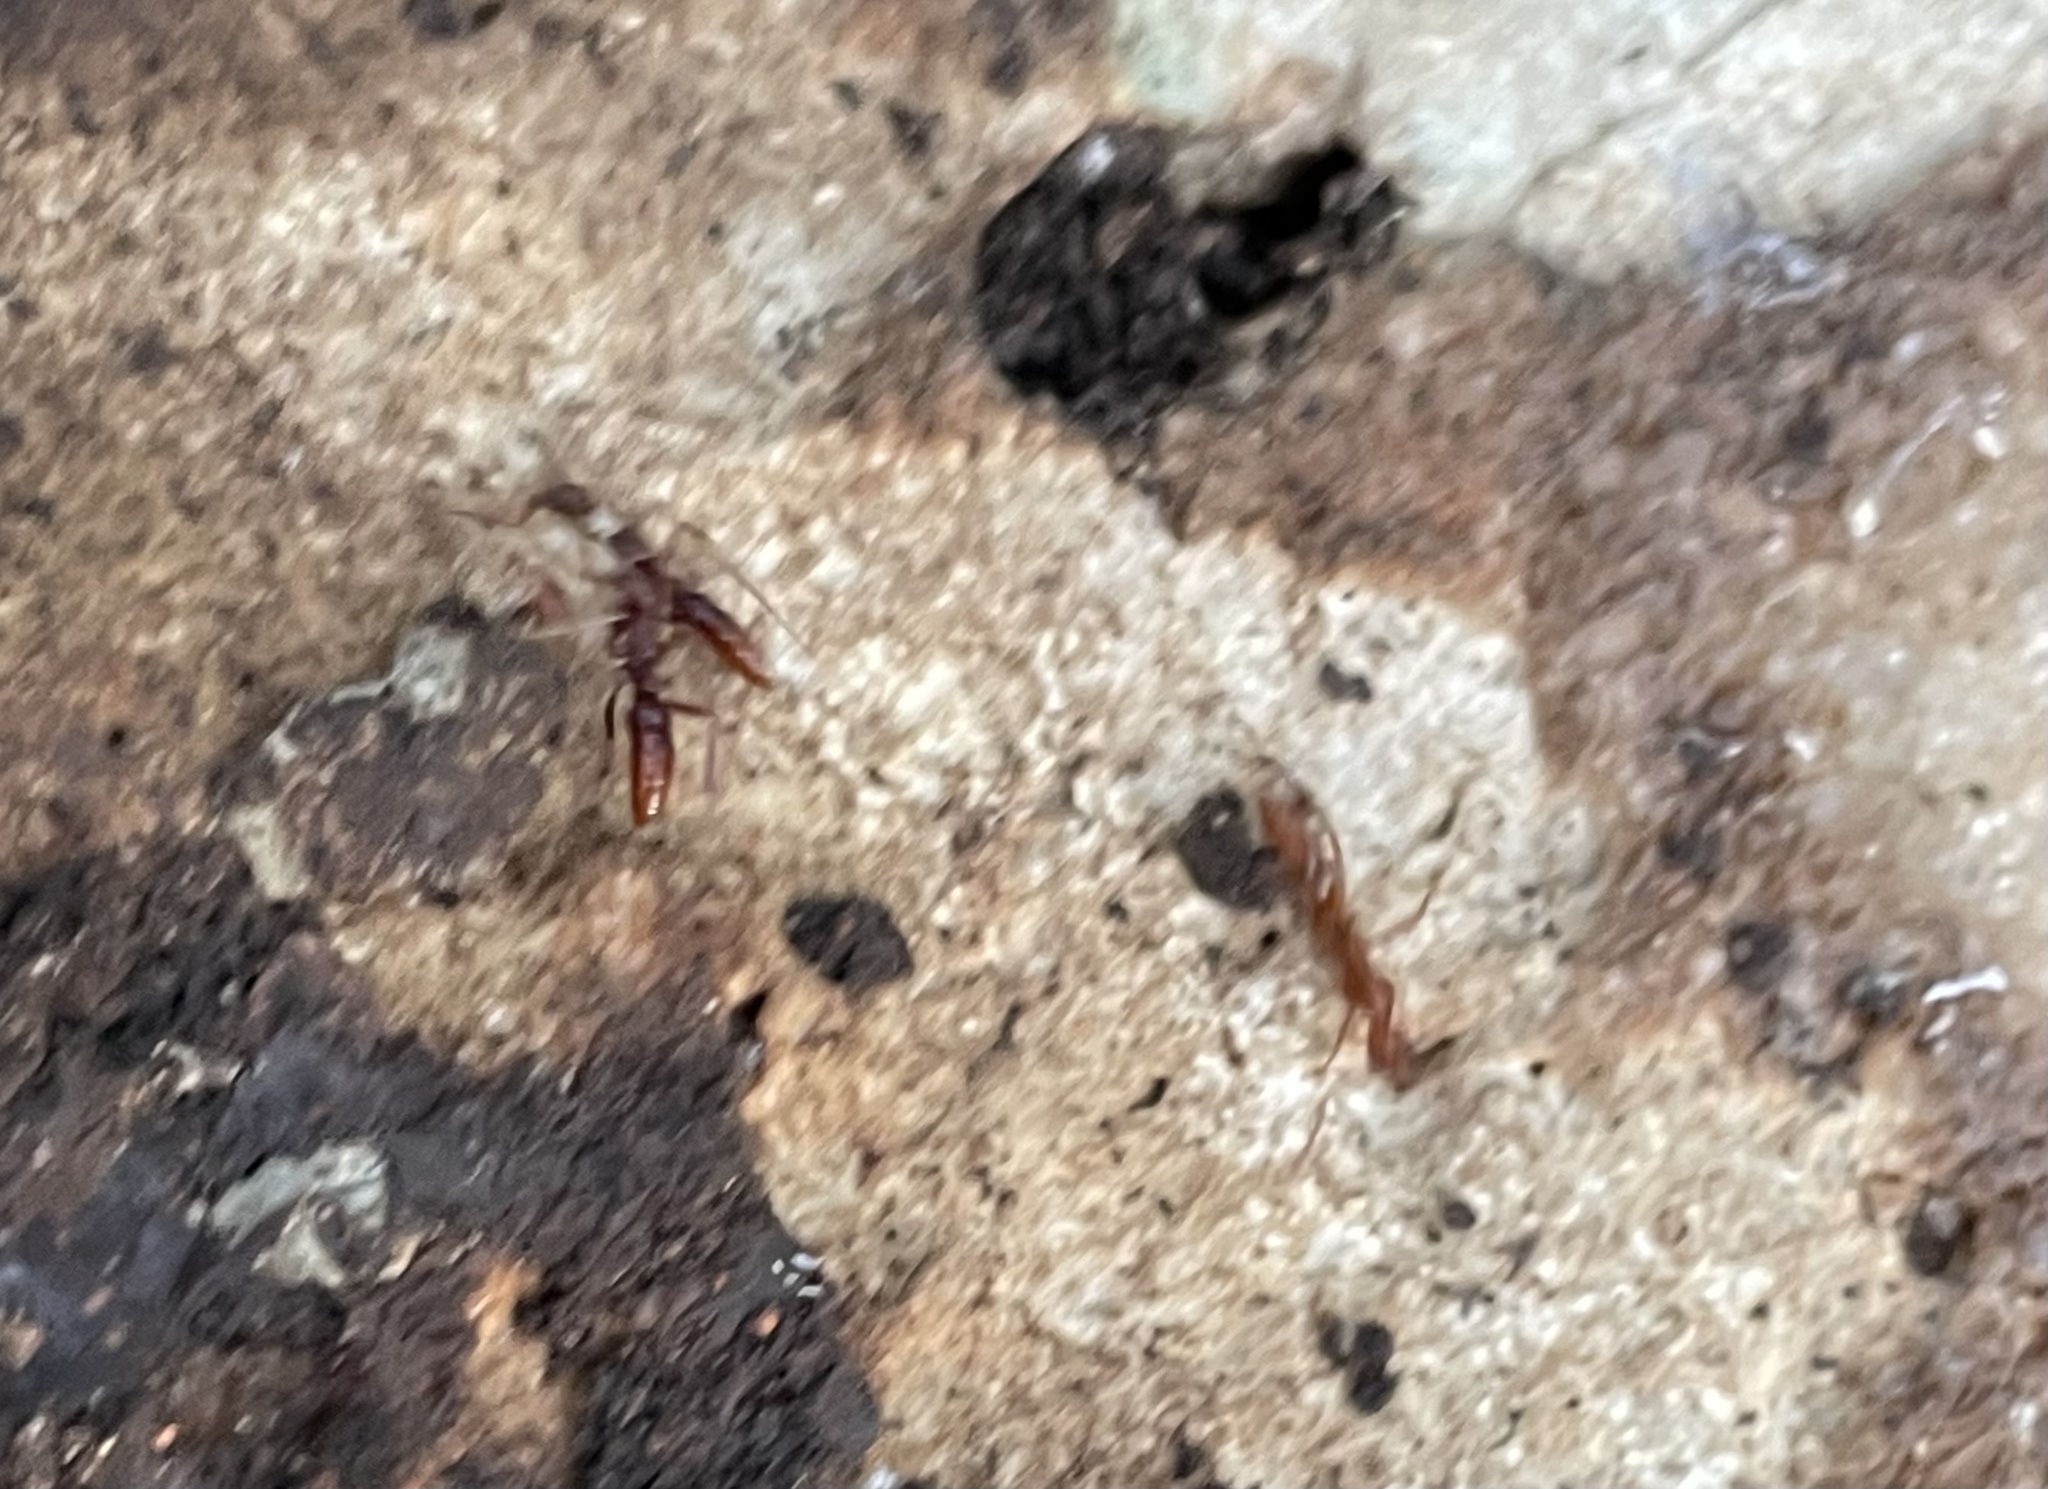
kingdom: Animalia
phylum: Arthropoda
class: Insecta
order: Hymenoptera
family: Formicidae
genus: Leptogenys
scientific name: Leptogenys elongata
